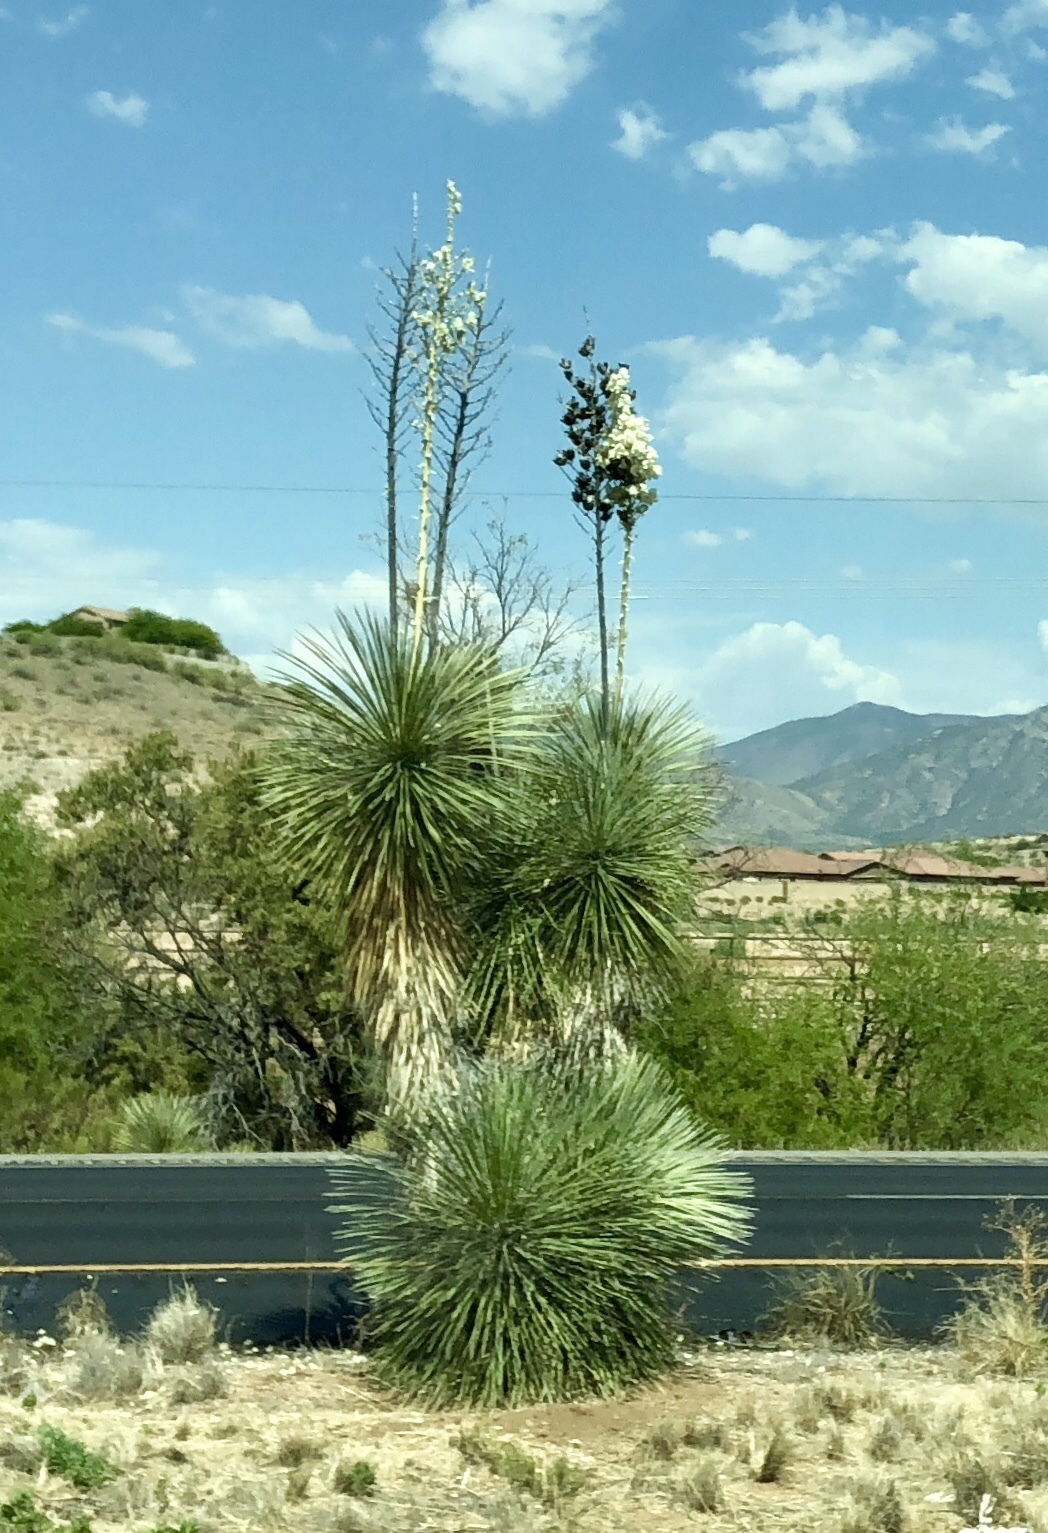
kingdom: Plantae
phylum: Tracheophyta
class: Liliopsida
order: Asparagales
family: Asparagaceae
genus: Yucca
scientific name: Yucca elata
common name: Palmella
